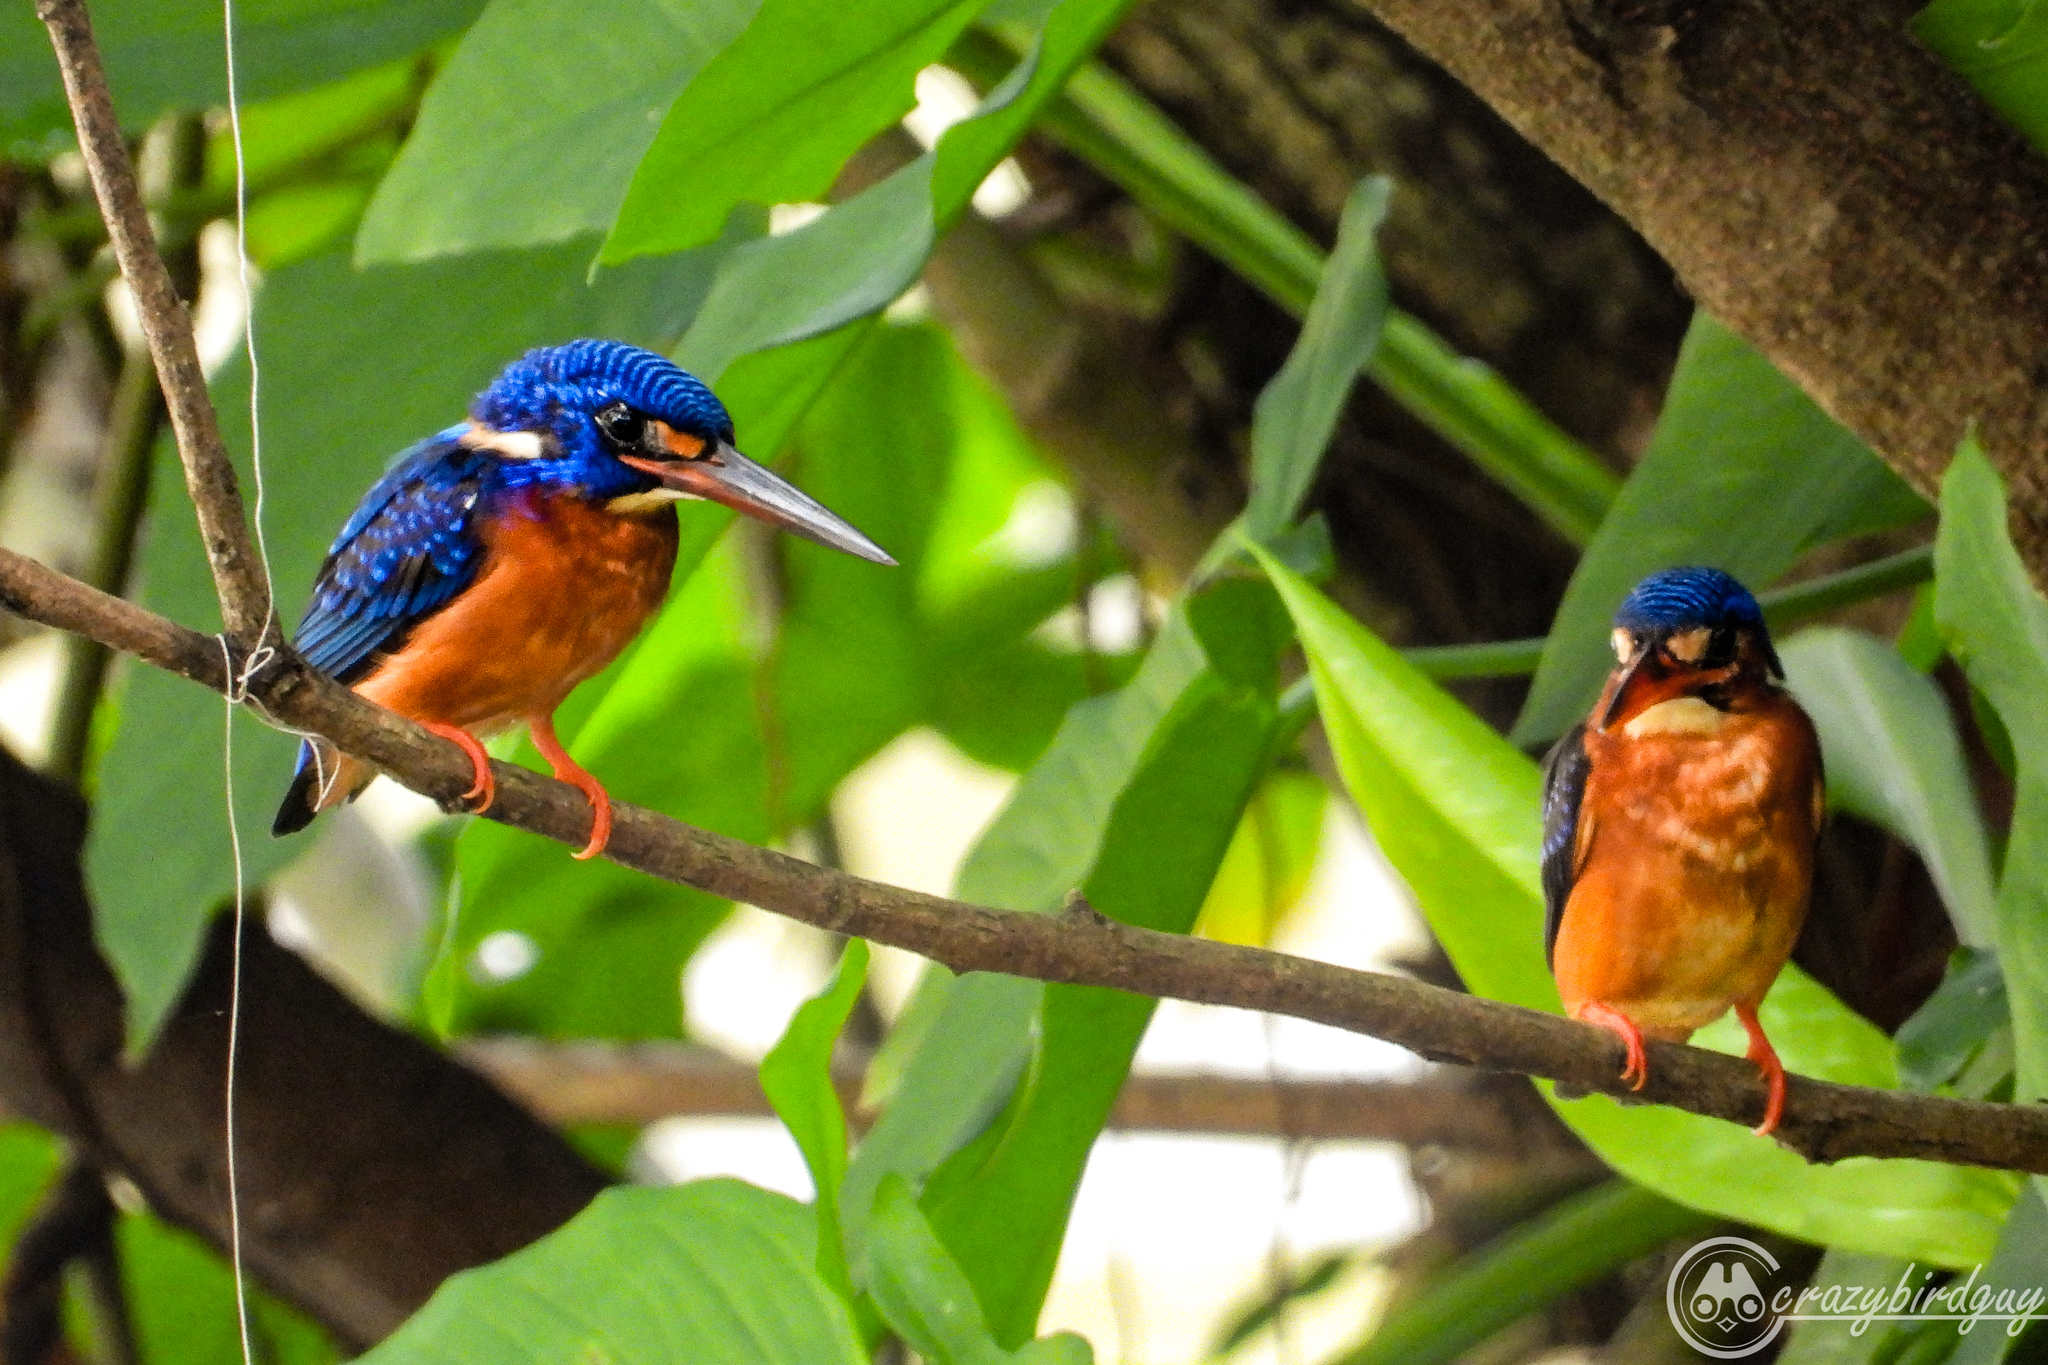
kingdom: Animalia
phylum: Chordata
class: Aves
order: Coraciiformes
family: Alcedinidae
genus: Alcedo
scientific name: Alcedo meninting
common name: Blue-eared kingfisher
